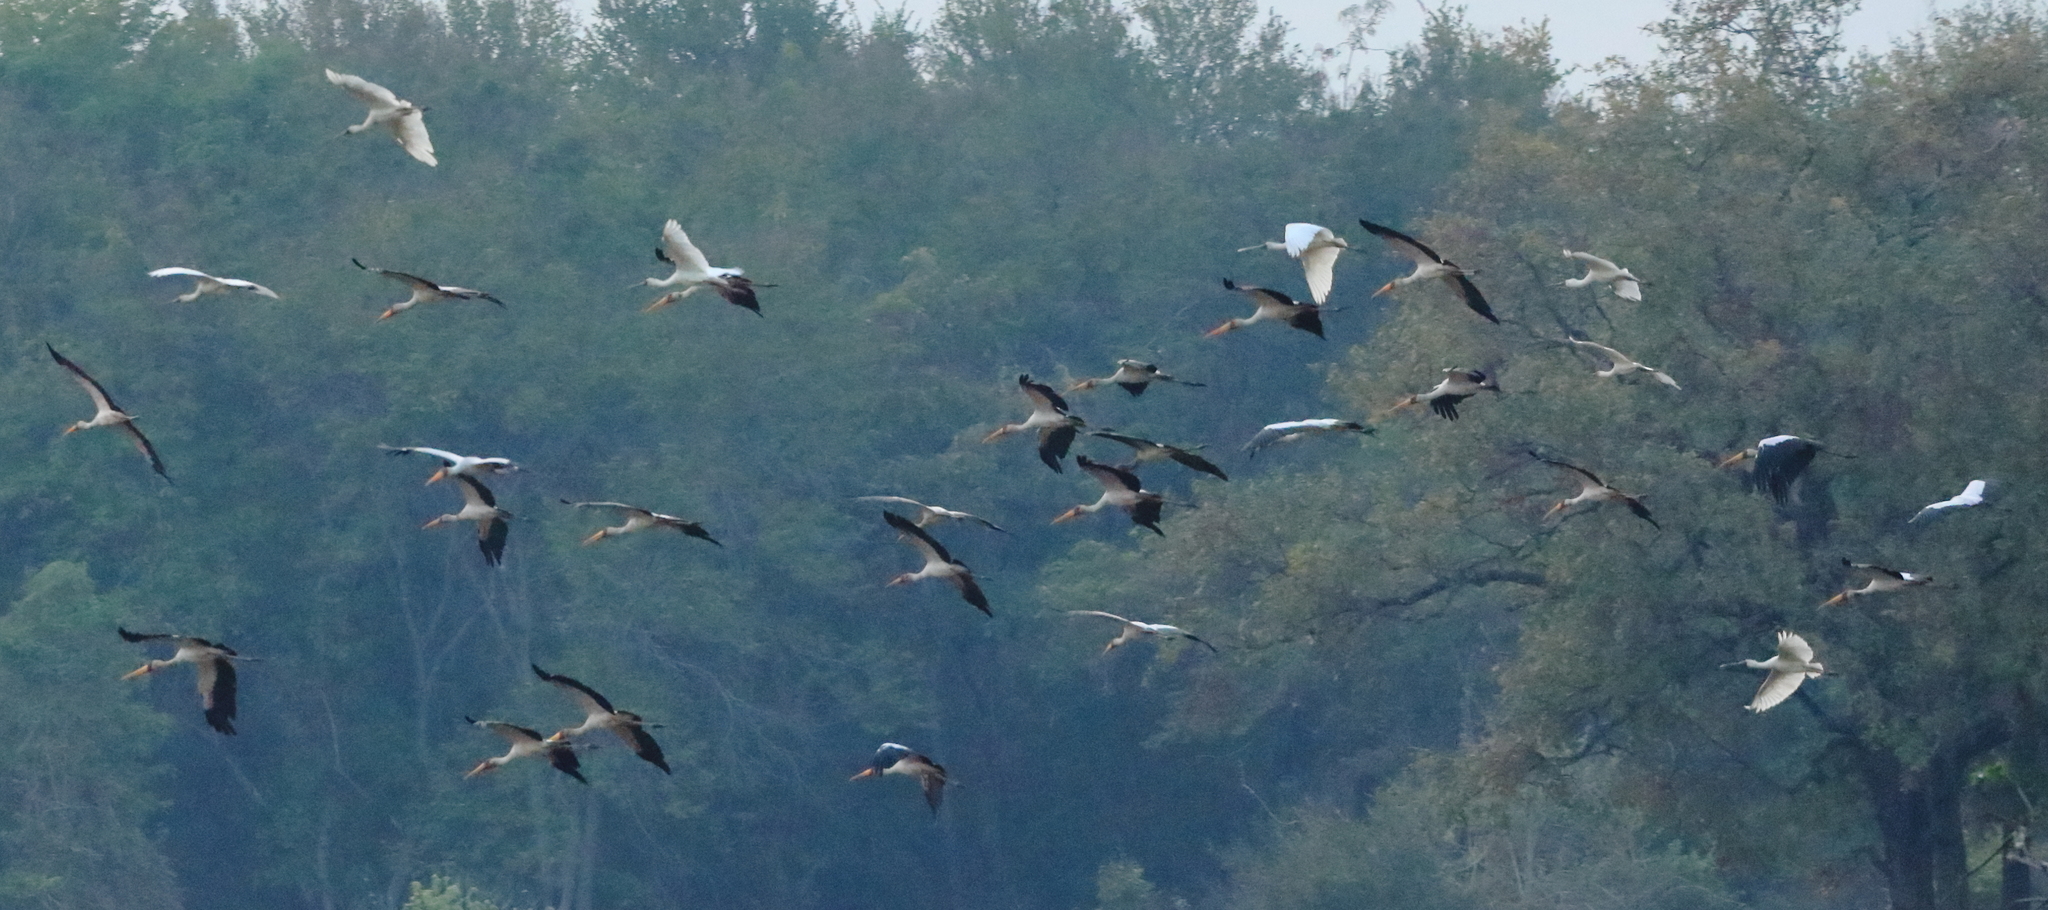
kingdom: Animalia
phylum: Chordata
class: Aves
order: Ciconiiformes
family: Ciconiidae
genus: Mycteria
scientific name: Mycteria ibis
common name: Yellow-billed stork
